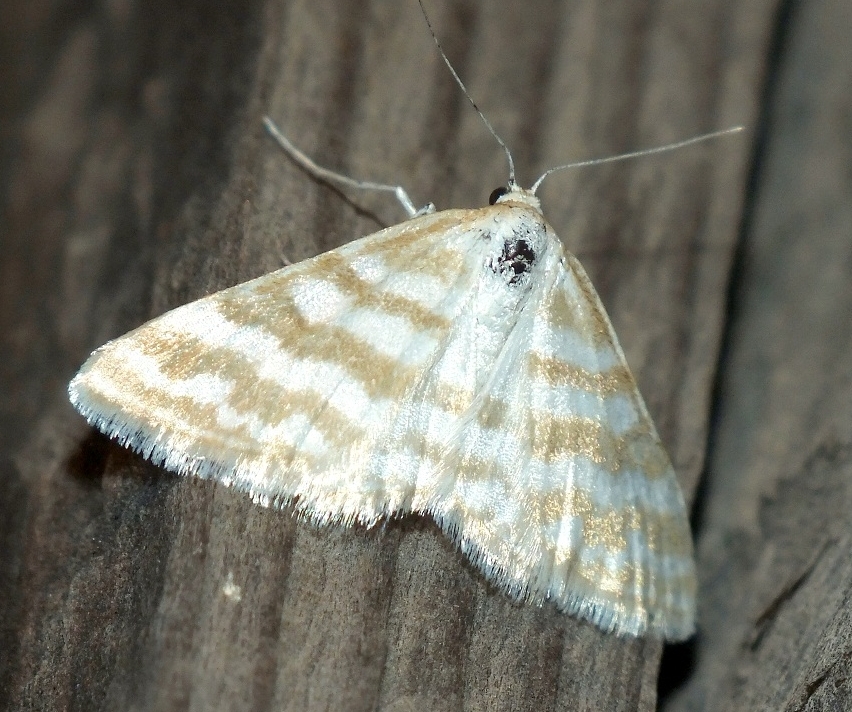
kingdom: Animalia
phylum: Arthropoda
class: Insecta
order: Lepidoptera
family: Geometridae
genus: Idaea
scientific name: Idaea sericeata
